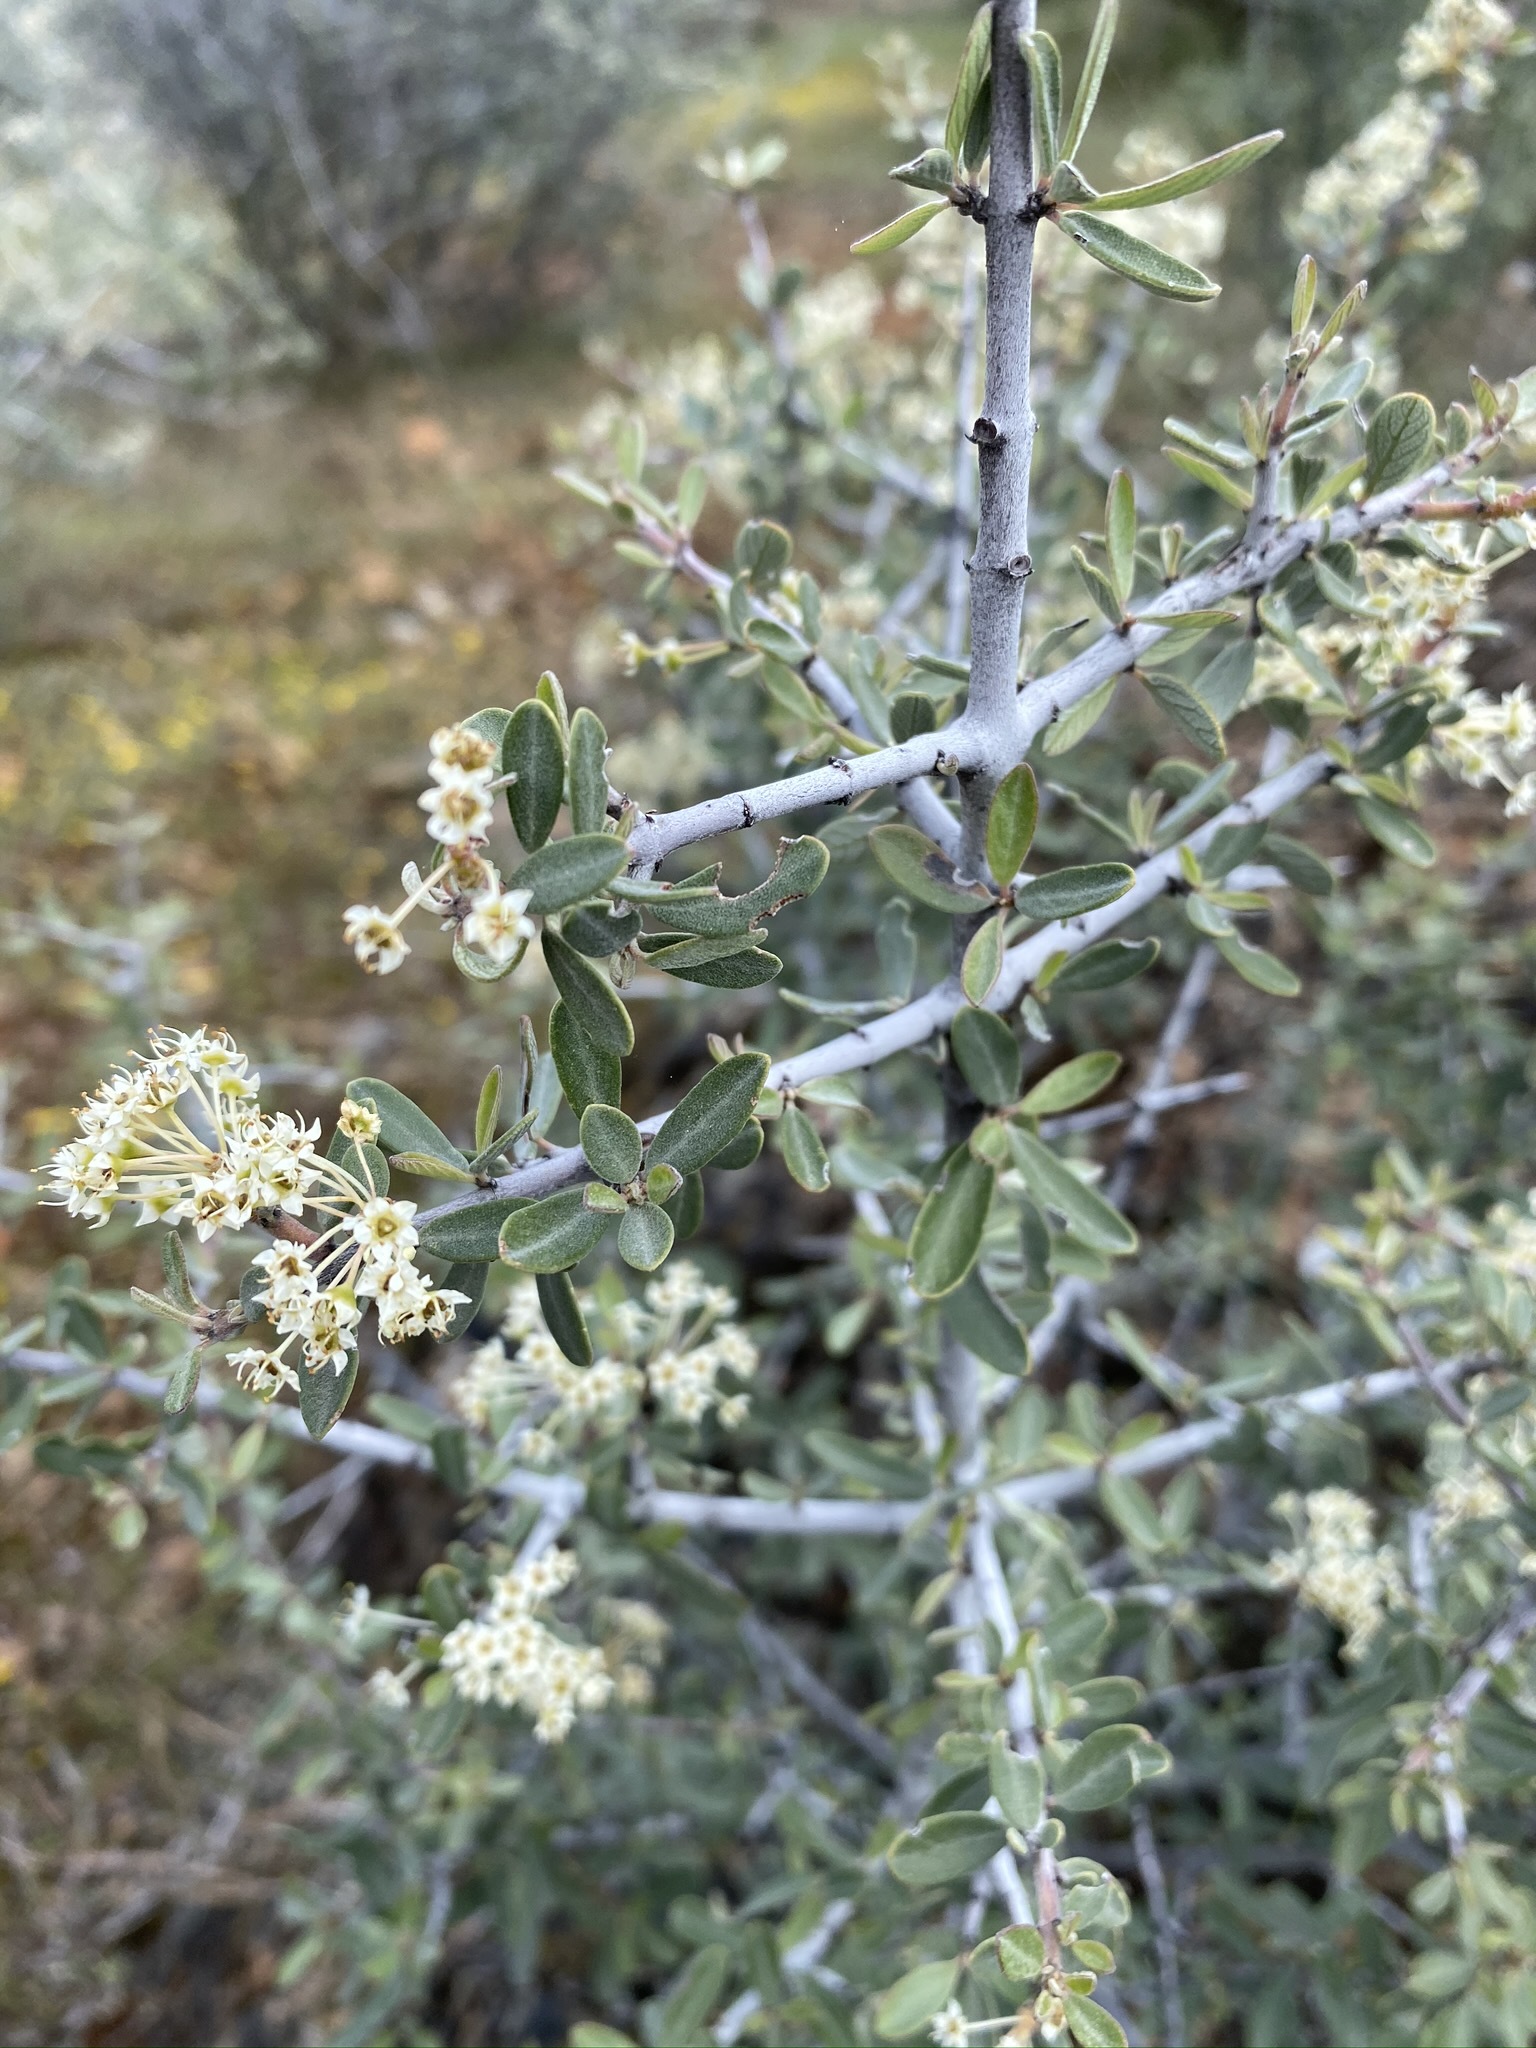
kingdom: Plantae
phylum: Tracheophyta
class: Magnoliopsida
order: Rosales
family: Rhamnaceae
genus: Ceanothus
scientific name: Ceanothus cuneatus
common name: Cuneate ceanothus
